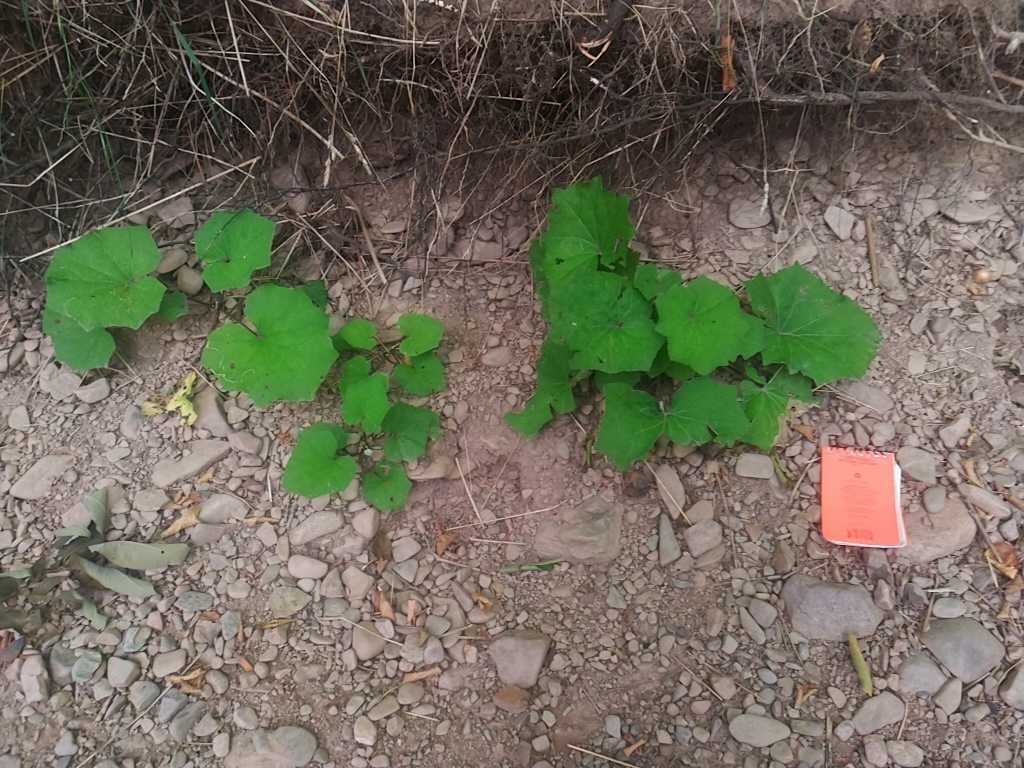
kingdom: Plantae
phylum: Tracheophyta
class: Magnoliopsida
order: Asterales
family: Asteraceae
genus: Tussilago
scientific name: Tussilago farfara
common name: Coltsfoot
